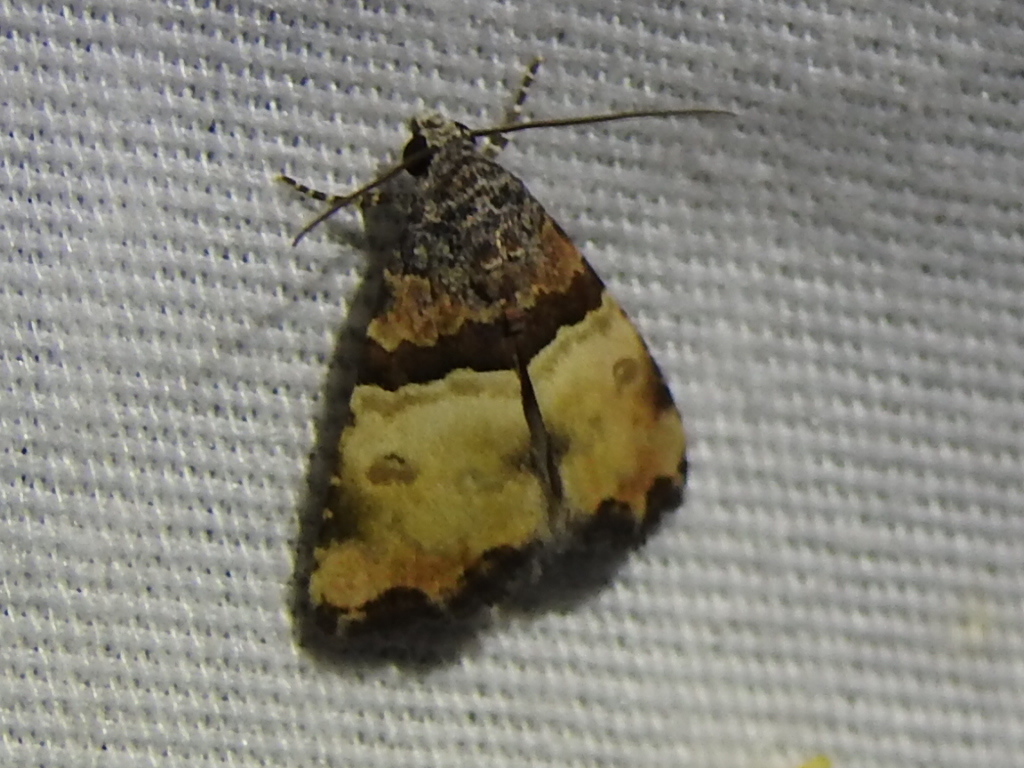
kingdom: Animalia
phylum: Arthropoda
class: Insecta
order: Lepidoptera
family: Noctuidae
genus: Cobubatha
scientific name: Cobubatha dividua
